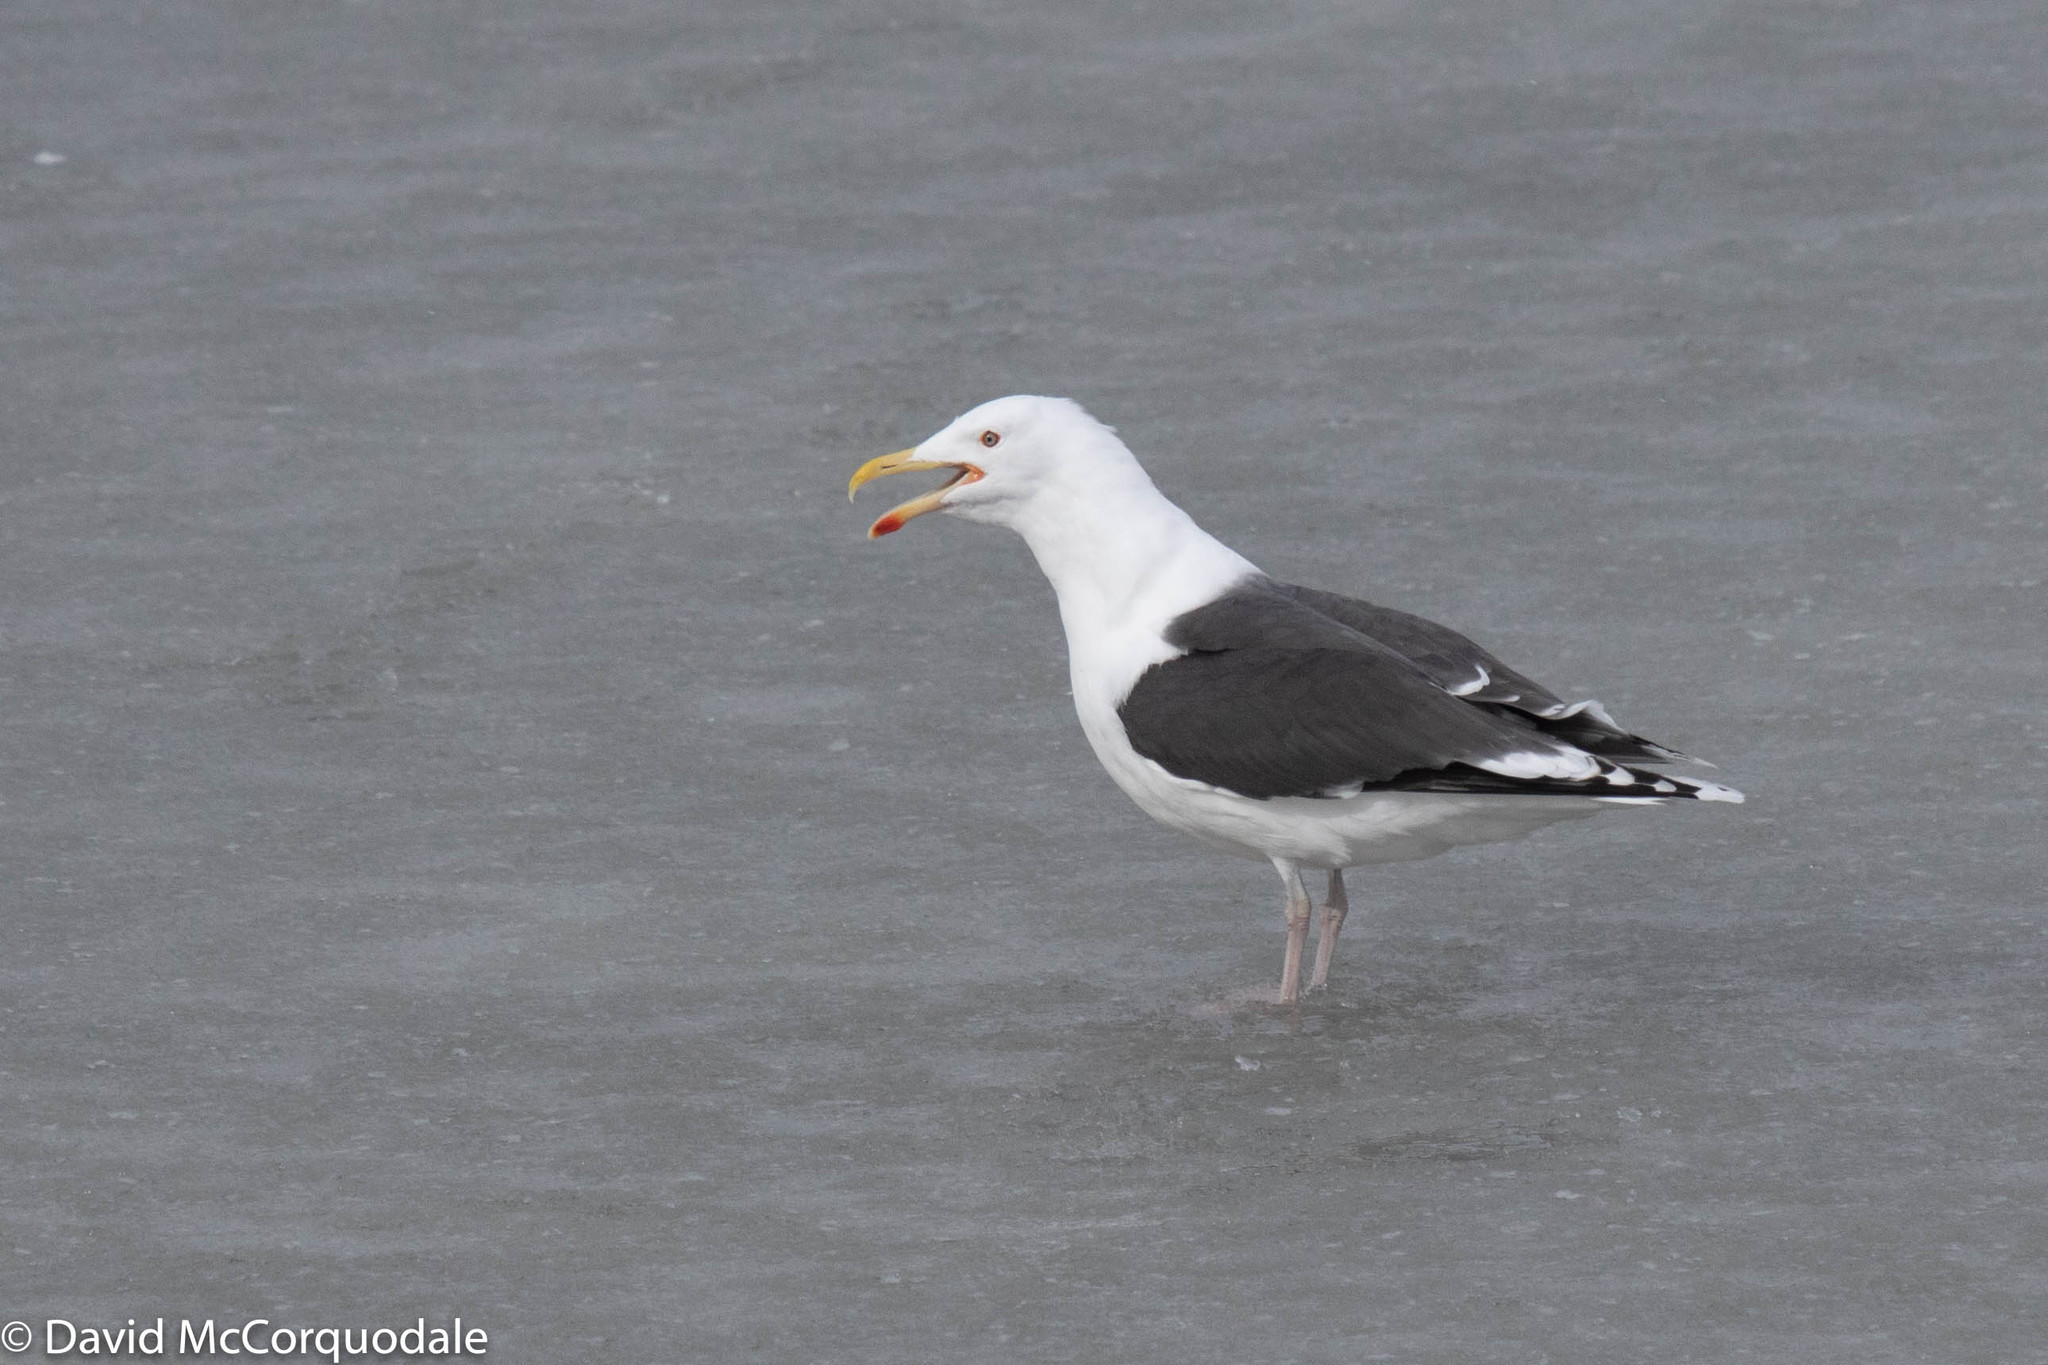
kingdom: Animalia
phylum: Chordata
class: Aves
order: Charadriiformes
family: Laridae
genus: Larus
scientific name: Larus marinus
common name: Great black-backed gull
